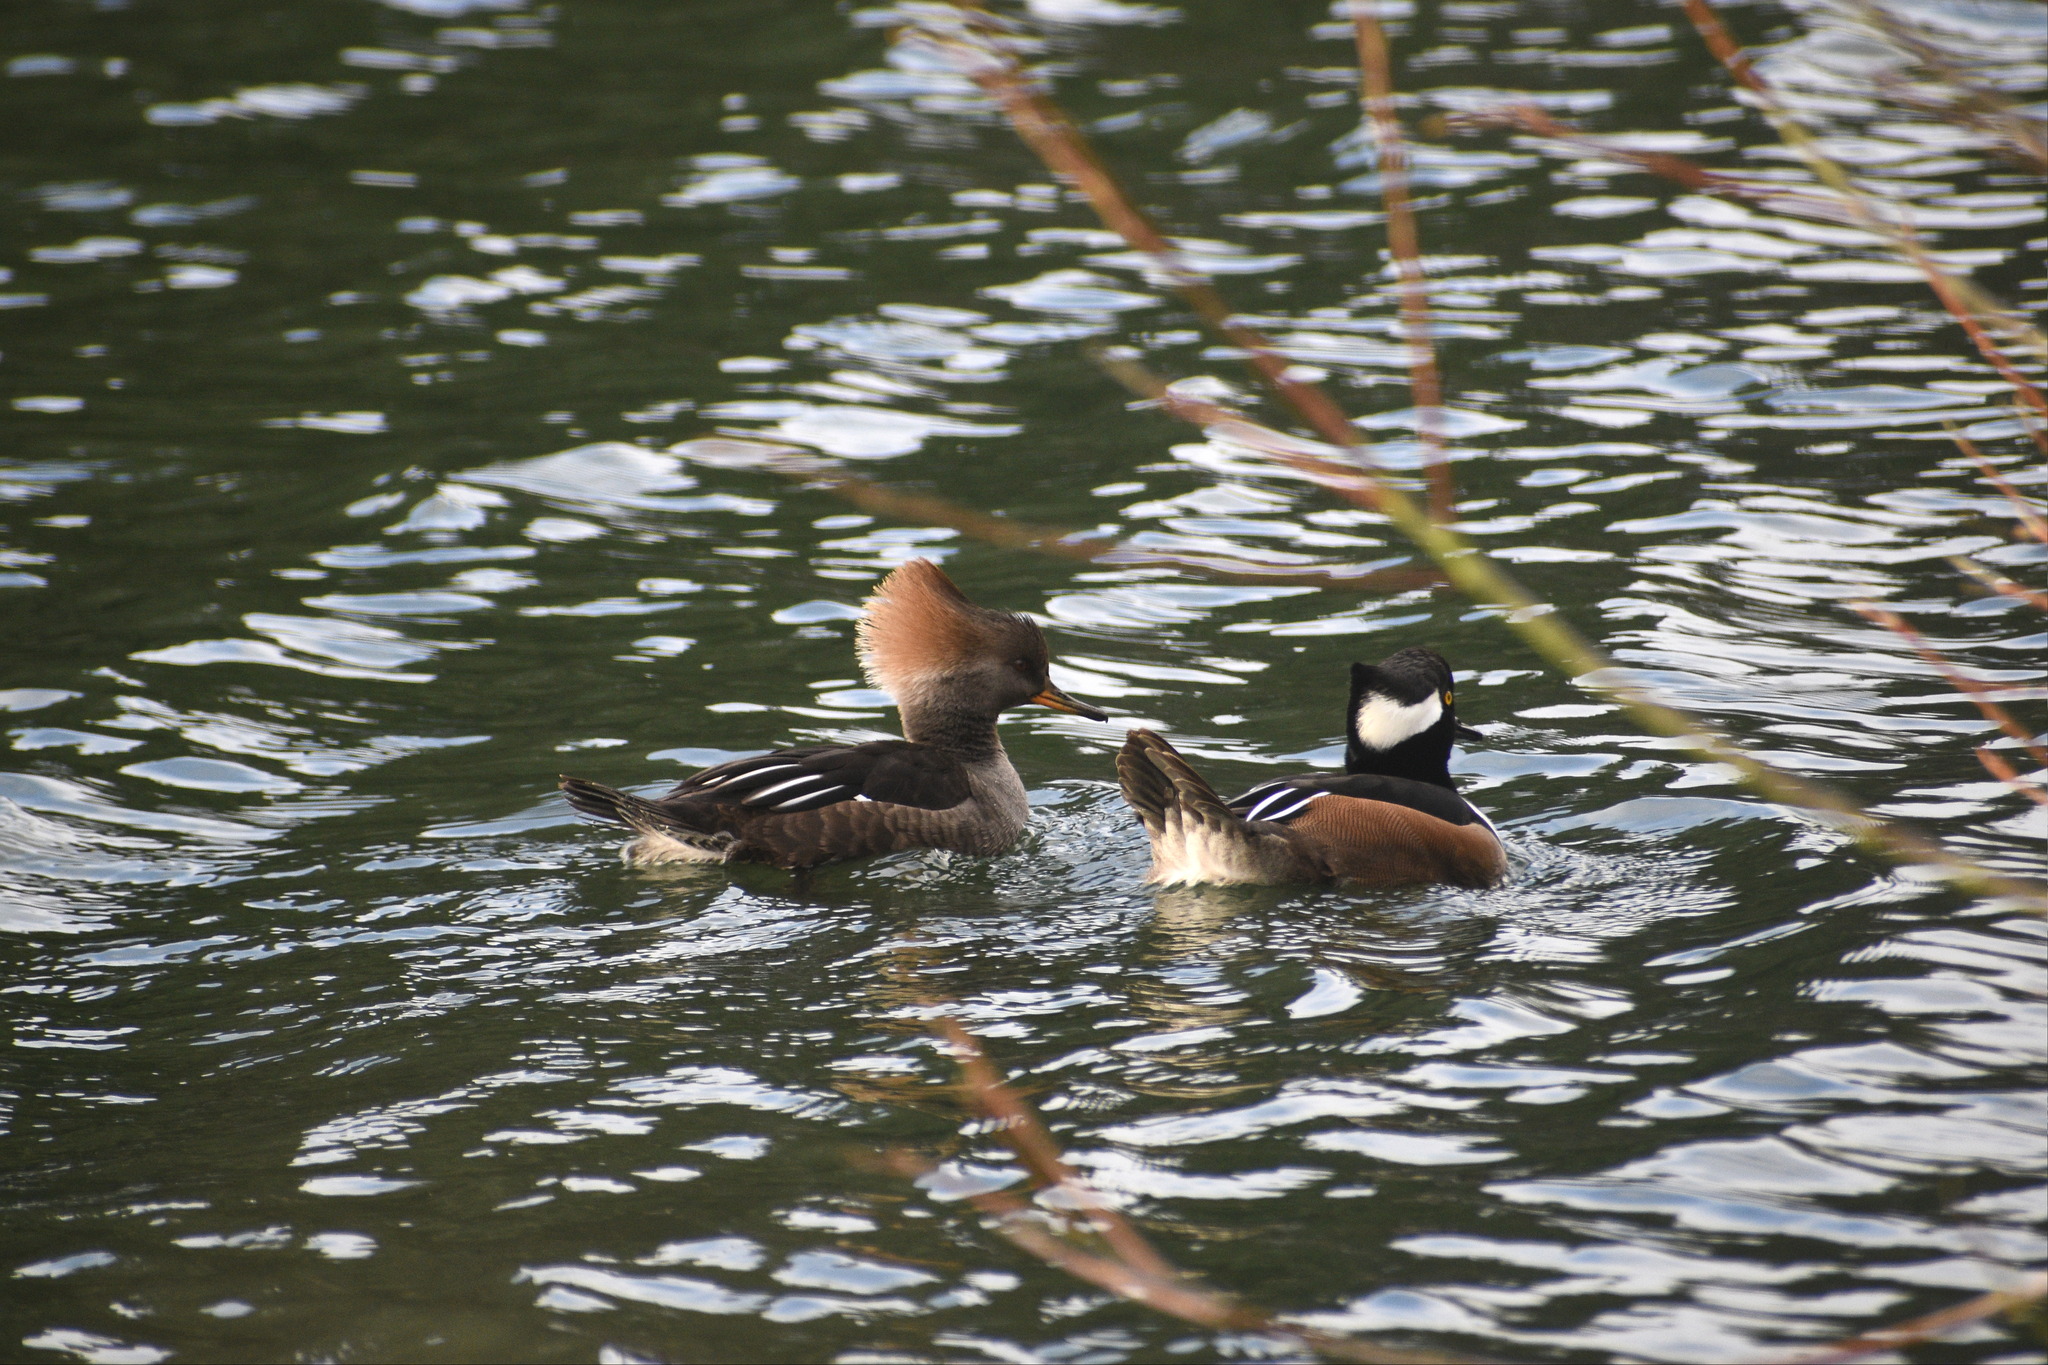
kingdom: Animalia
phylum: Chordata
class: Aves
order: Anseriformes
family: Anatidae
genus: Lophodytes
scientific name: Lophodytes cucullatus
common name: Hooded merganser
